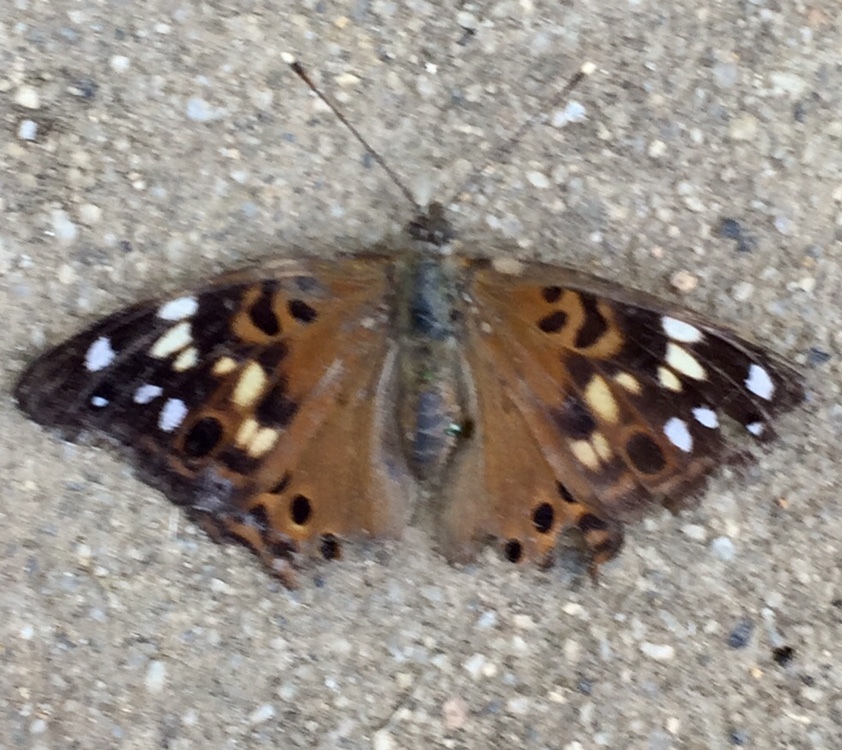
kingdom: Animalia
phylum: Arthropoda
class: Insecta
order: Lepidoptera
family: Nymphalidae
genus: Asterocampa
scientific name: Asterocampa celtis
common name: Hackberry emperor
